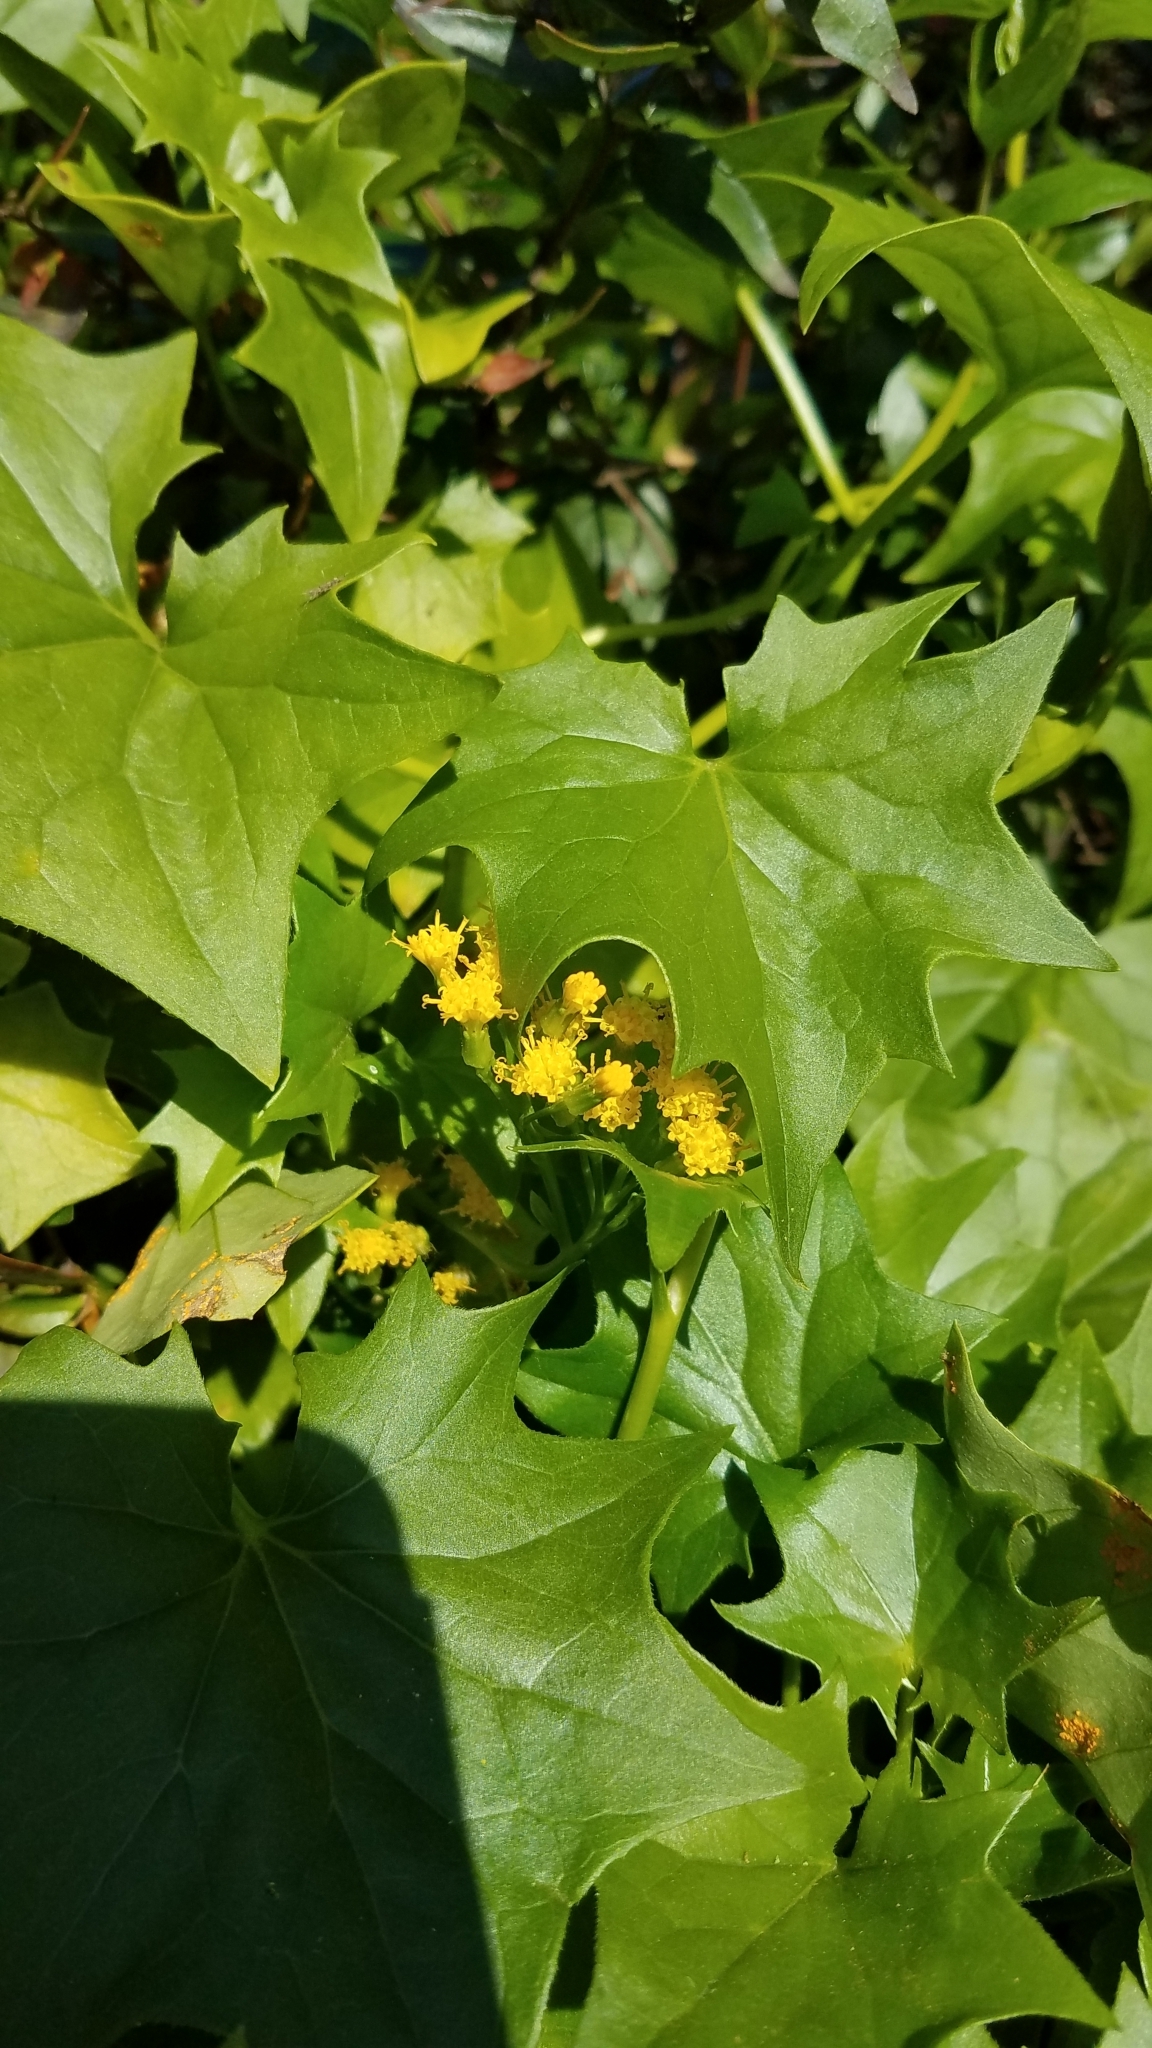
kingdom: Plantae
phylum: Tracheophyta
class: Magnoliopsida
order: Asterales
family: Asteraceae
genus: Delairea
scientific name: Delairea odorata
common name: Cape-ivy
